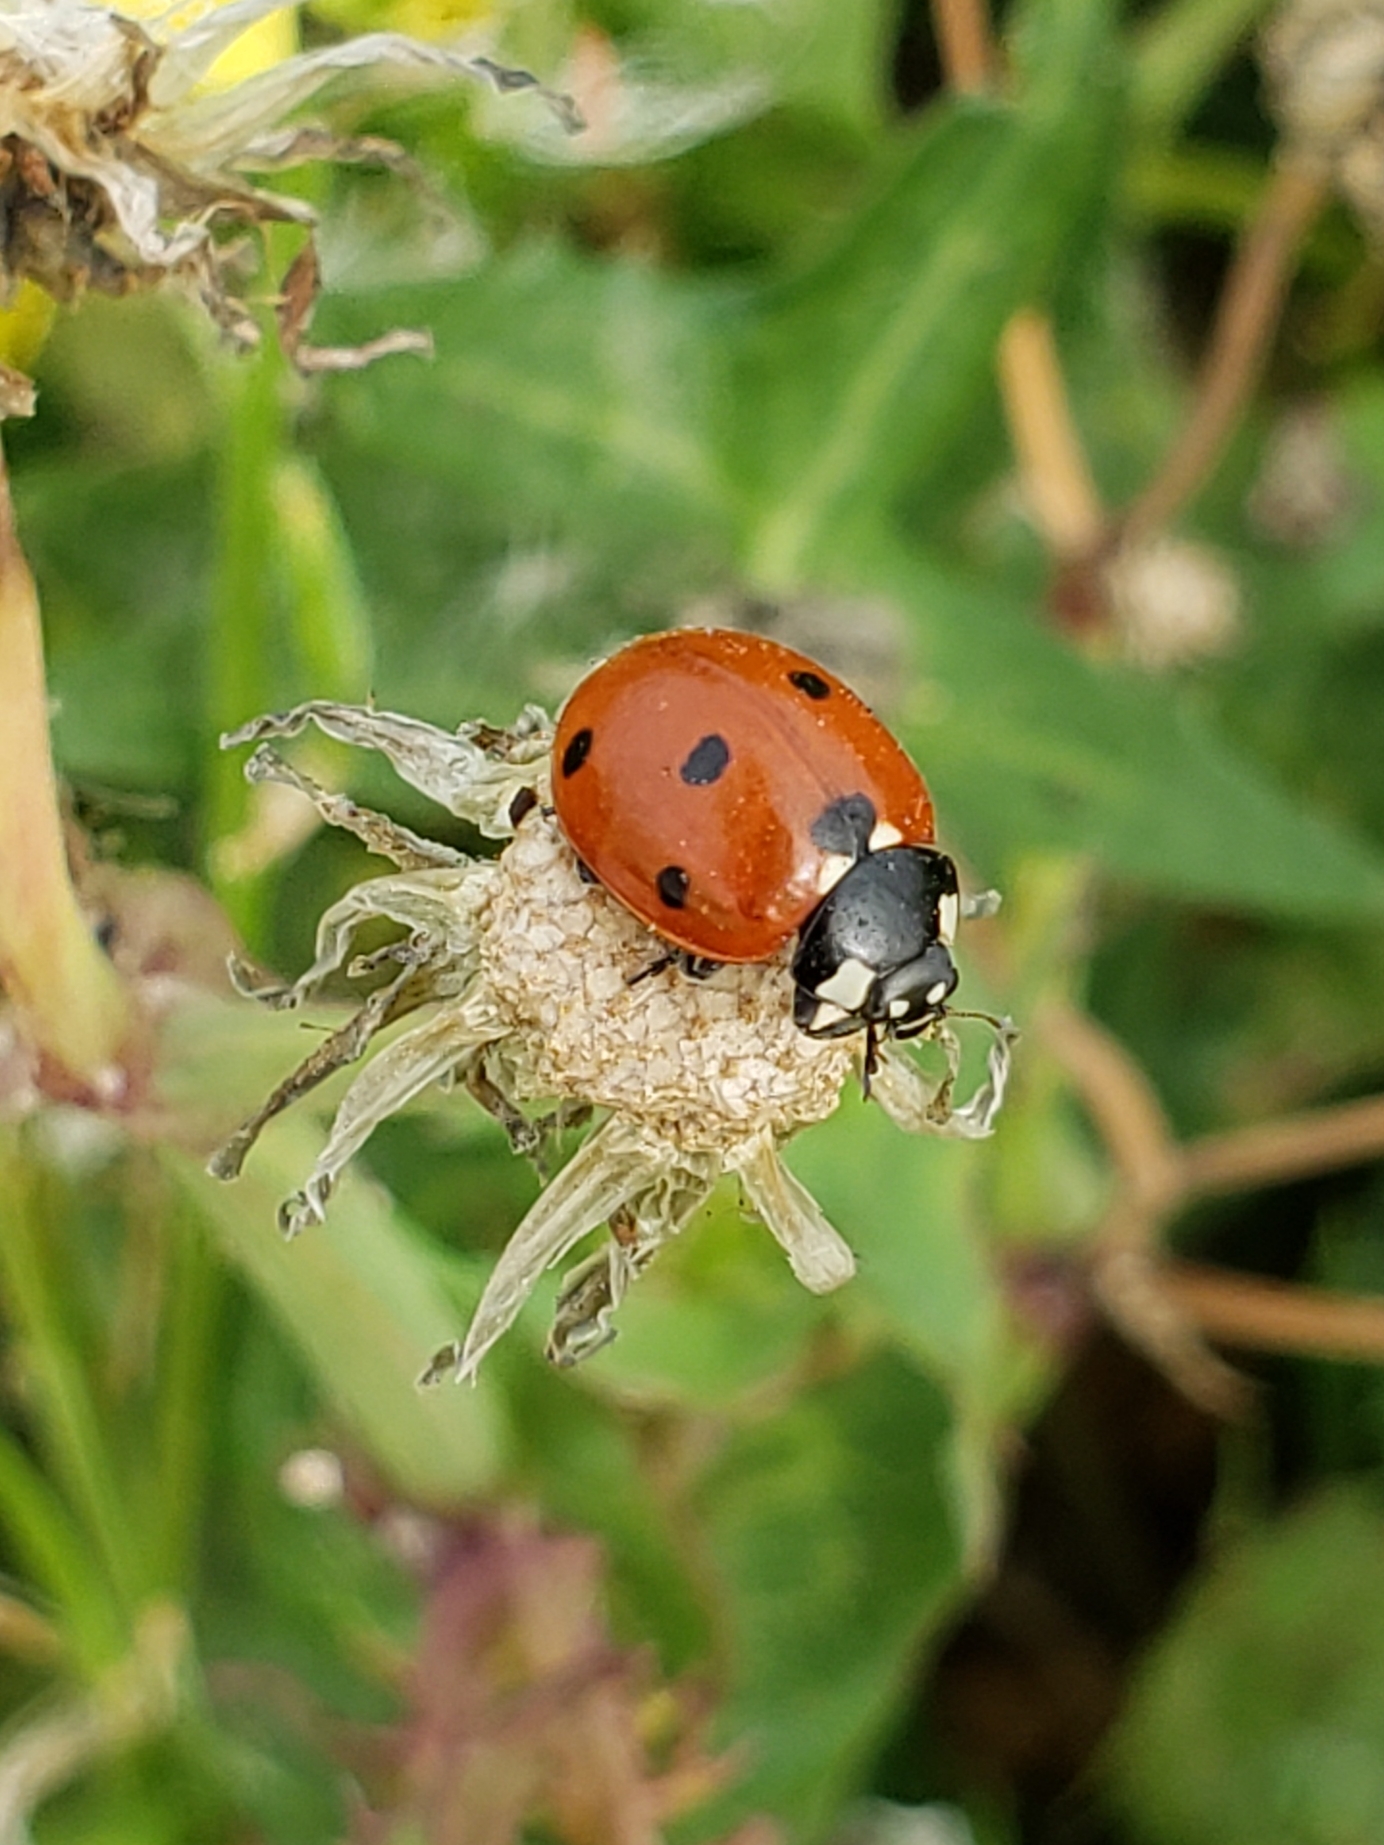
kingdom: Animalia
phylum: Arthropoda
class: Insecta
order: Coleoptera
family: Coccinellidae
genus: Coccinella
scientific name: Coccinella septempunctata
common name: Sevenspotted lady beetle
